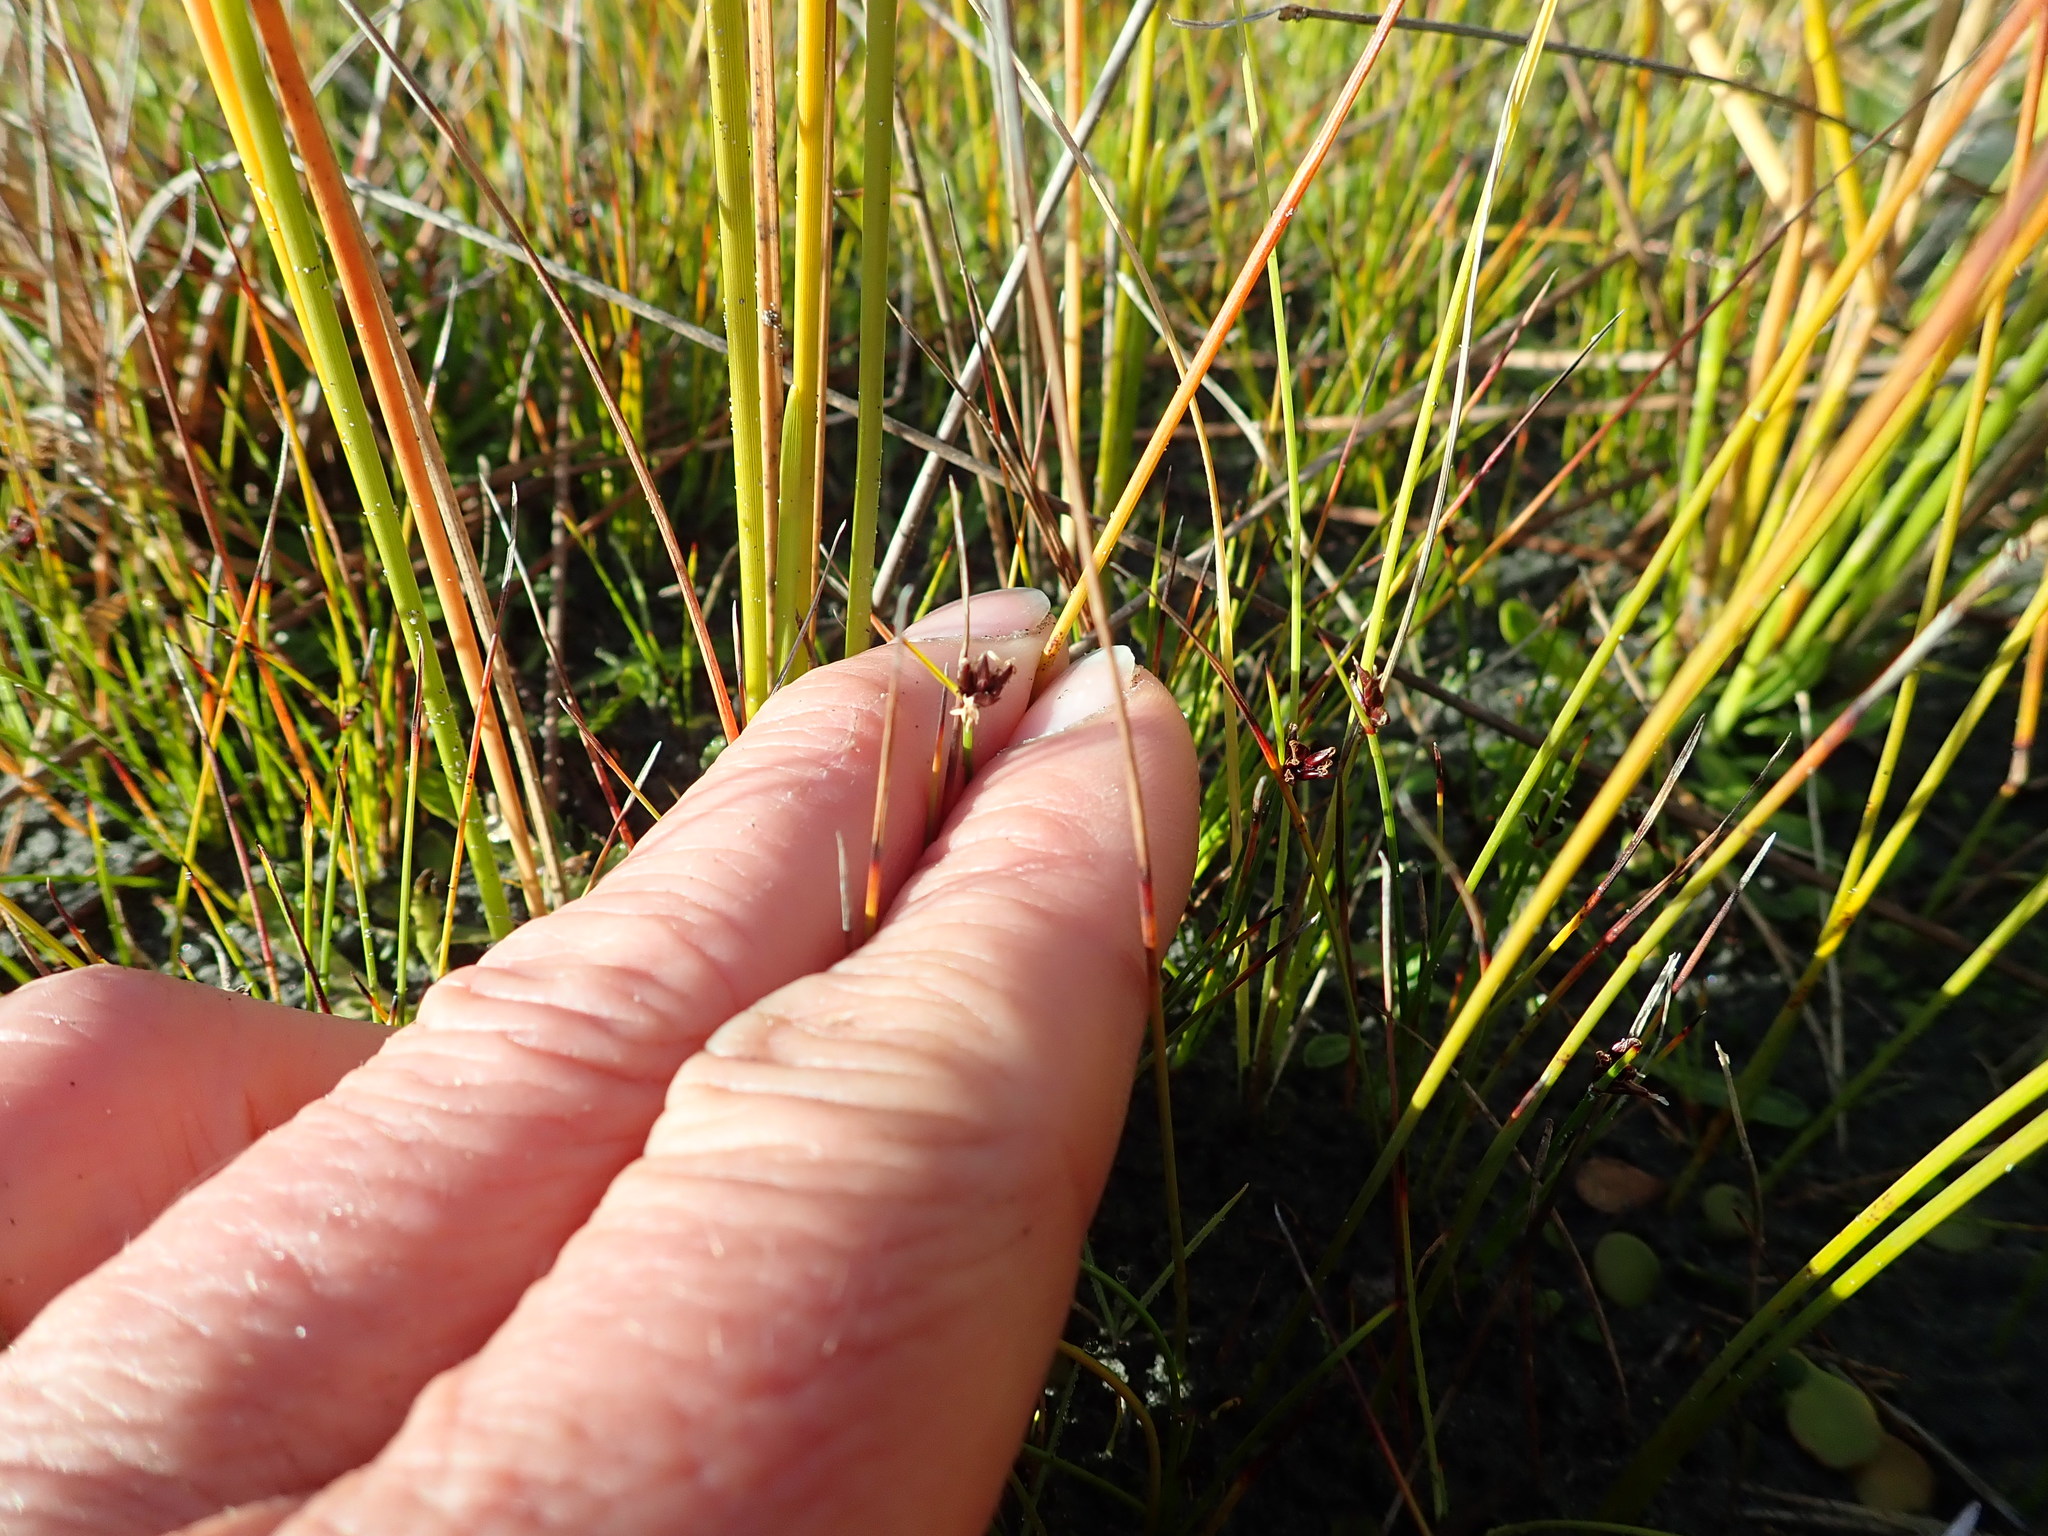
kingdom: Plantae
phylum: Tracheophyta
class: Liliopsida
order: Poales
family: Cyperaceae
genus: Schoenus
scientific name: Schoenus nitens
